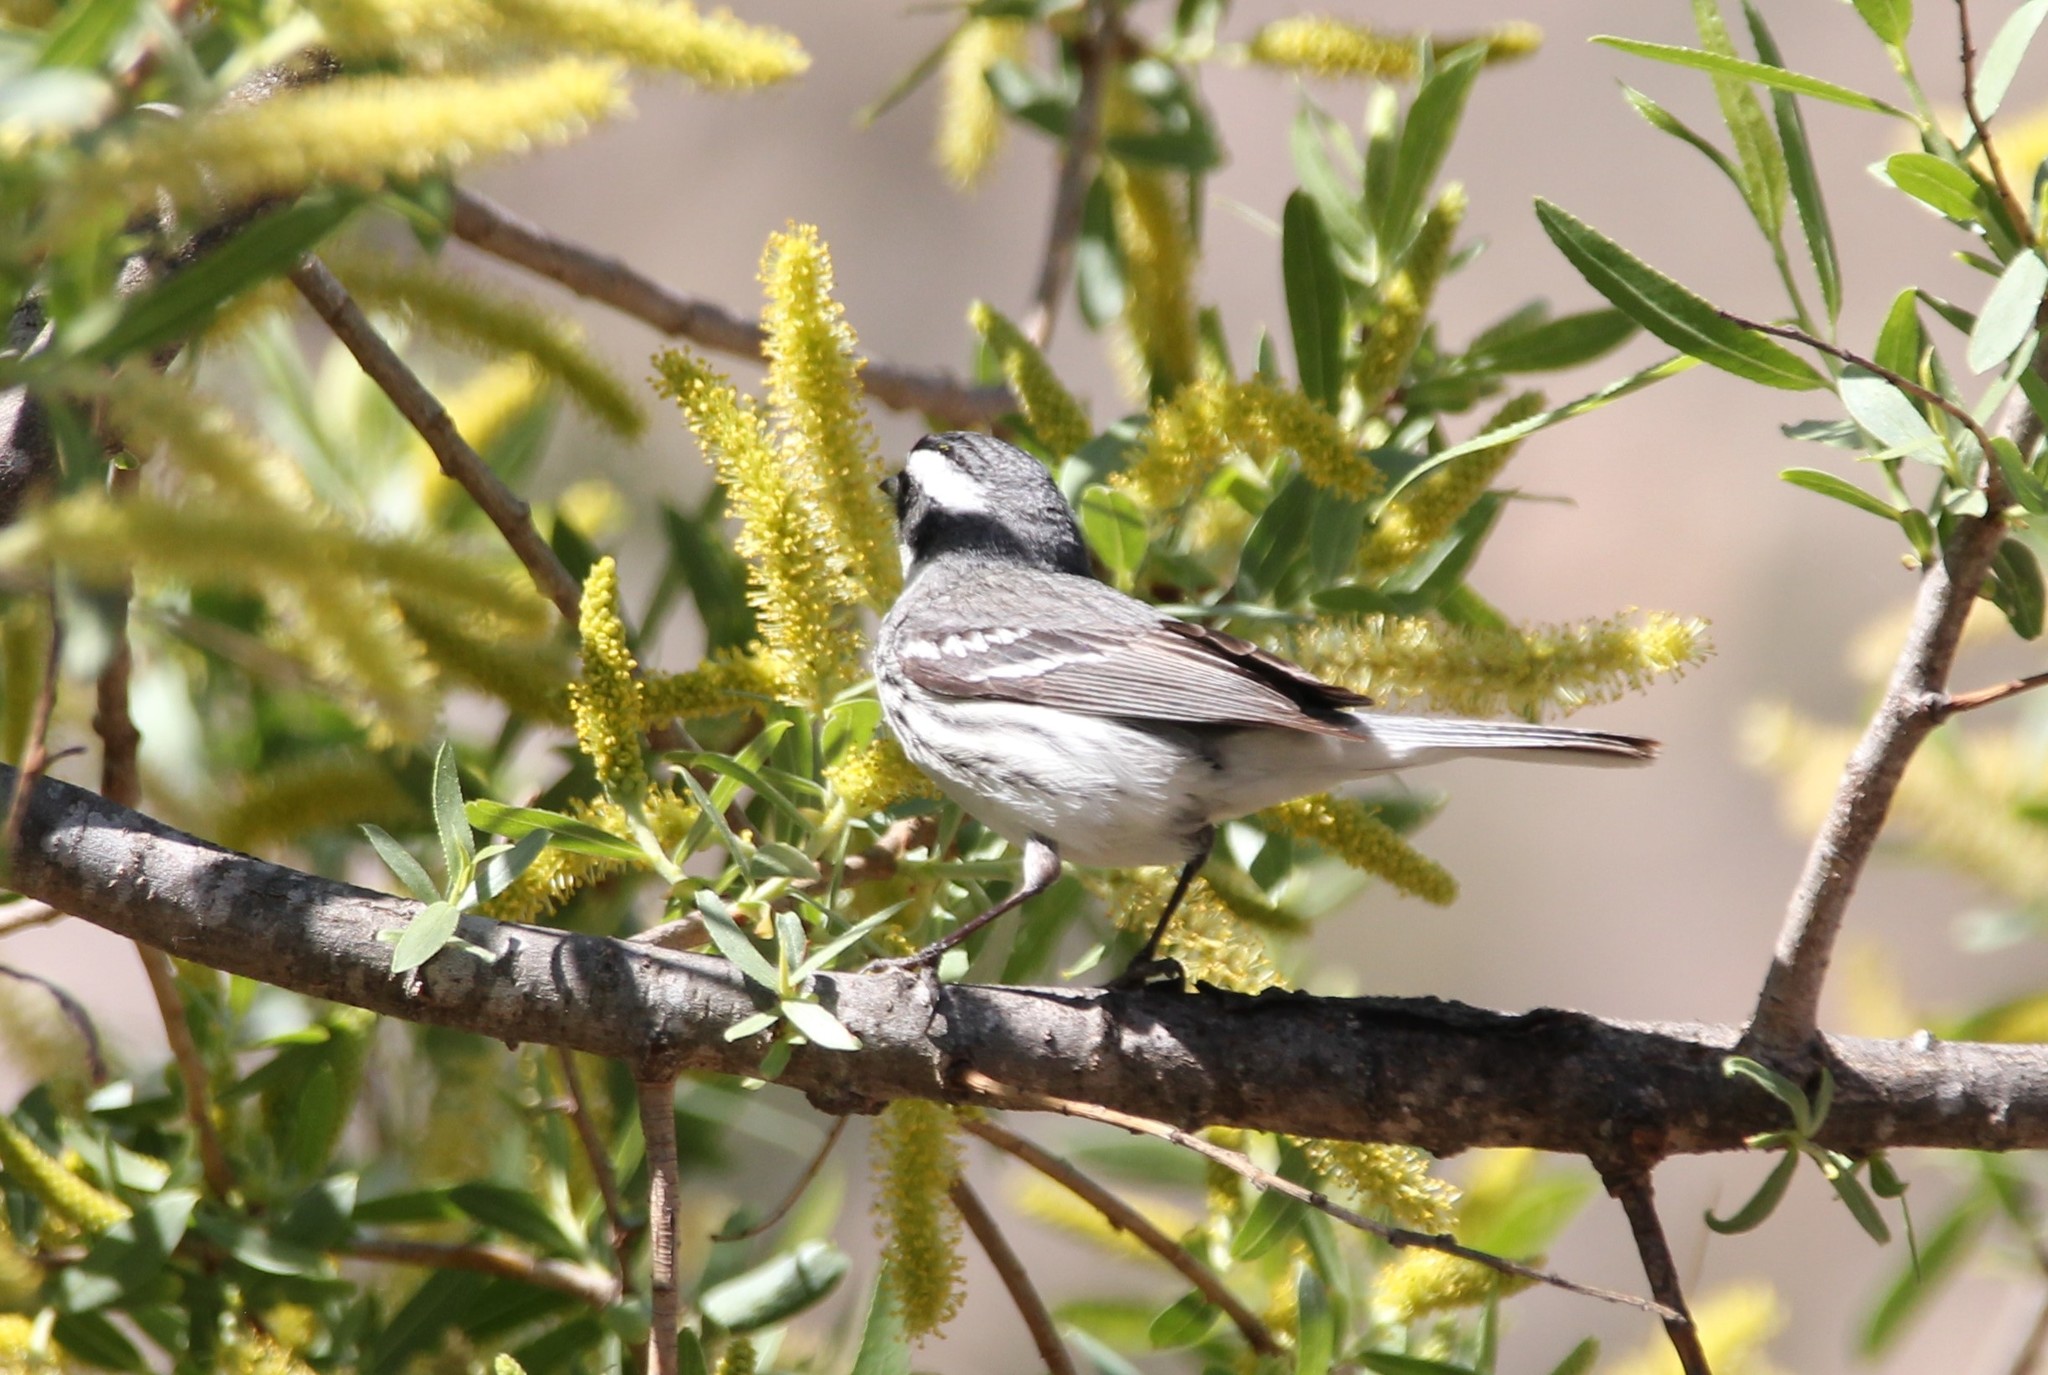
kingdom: Animalia
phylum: Chordata
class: Aves
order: Passeriformes
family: Parulidae
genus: Setophaga
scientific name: Setophaga nigrescens
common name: Black-throated gray warbler
